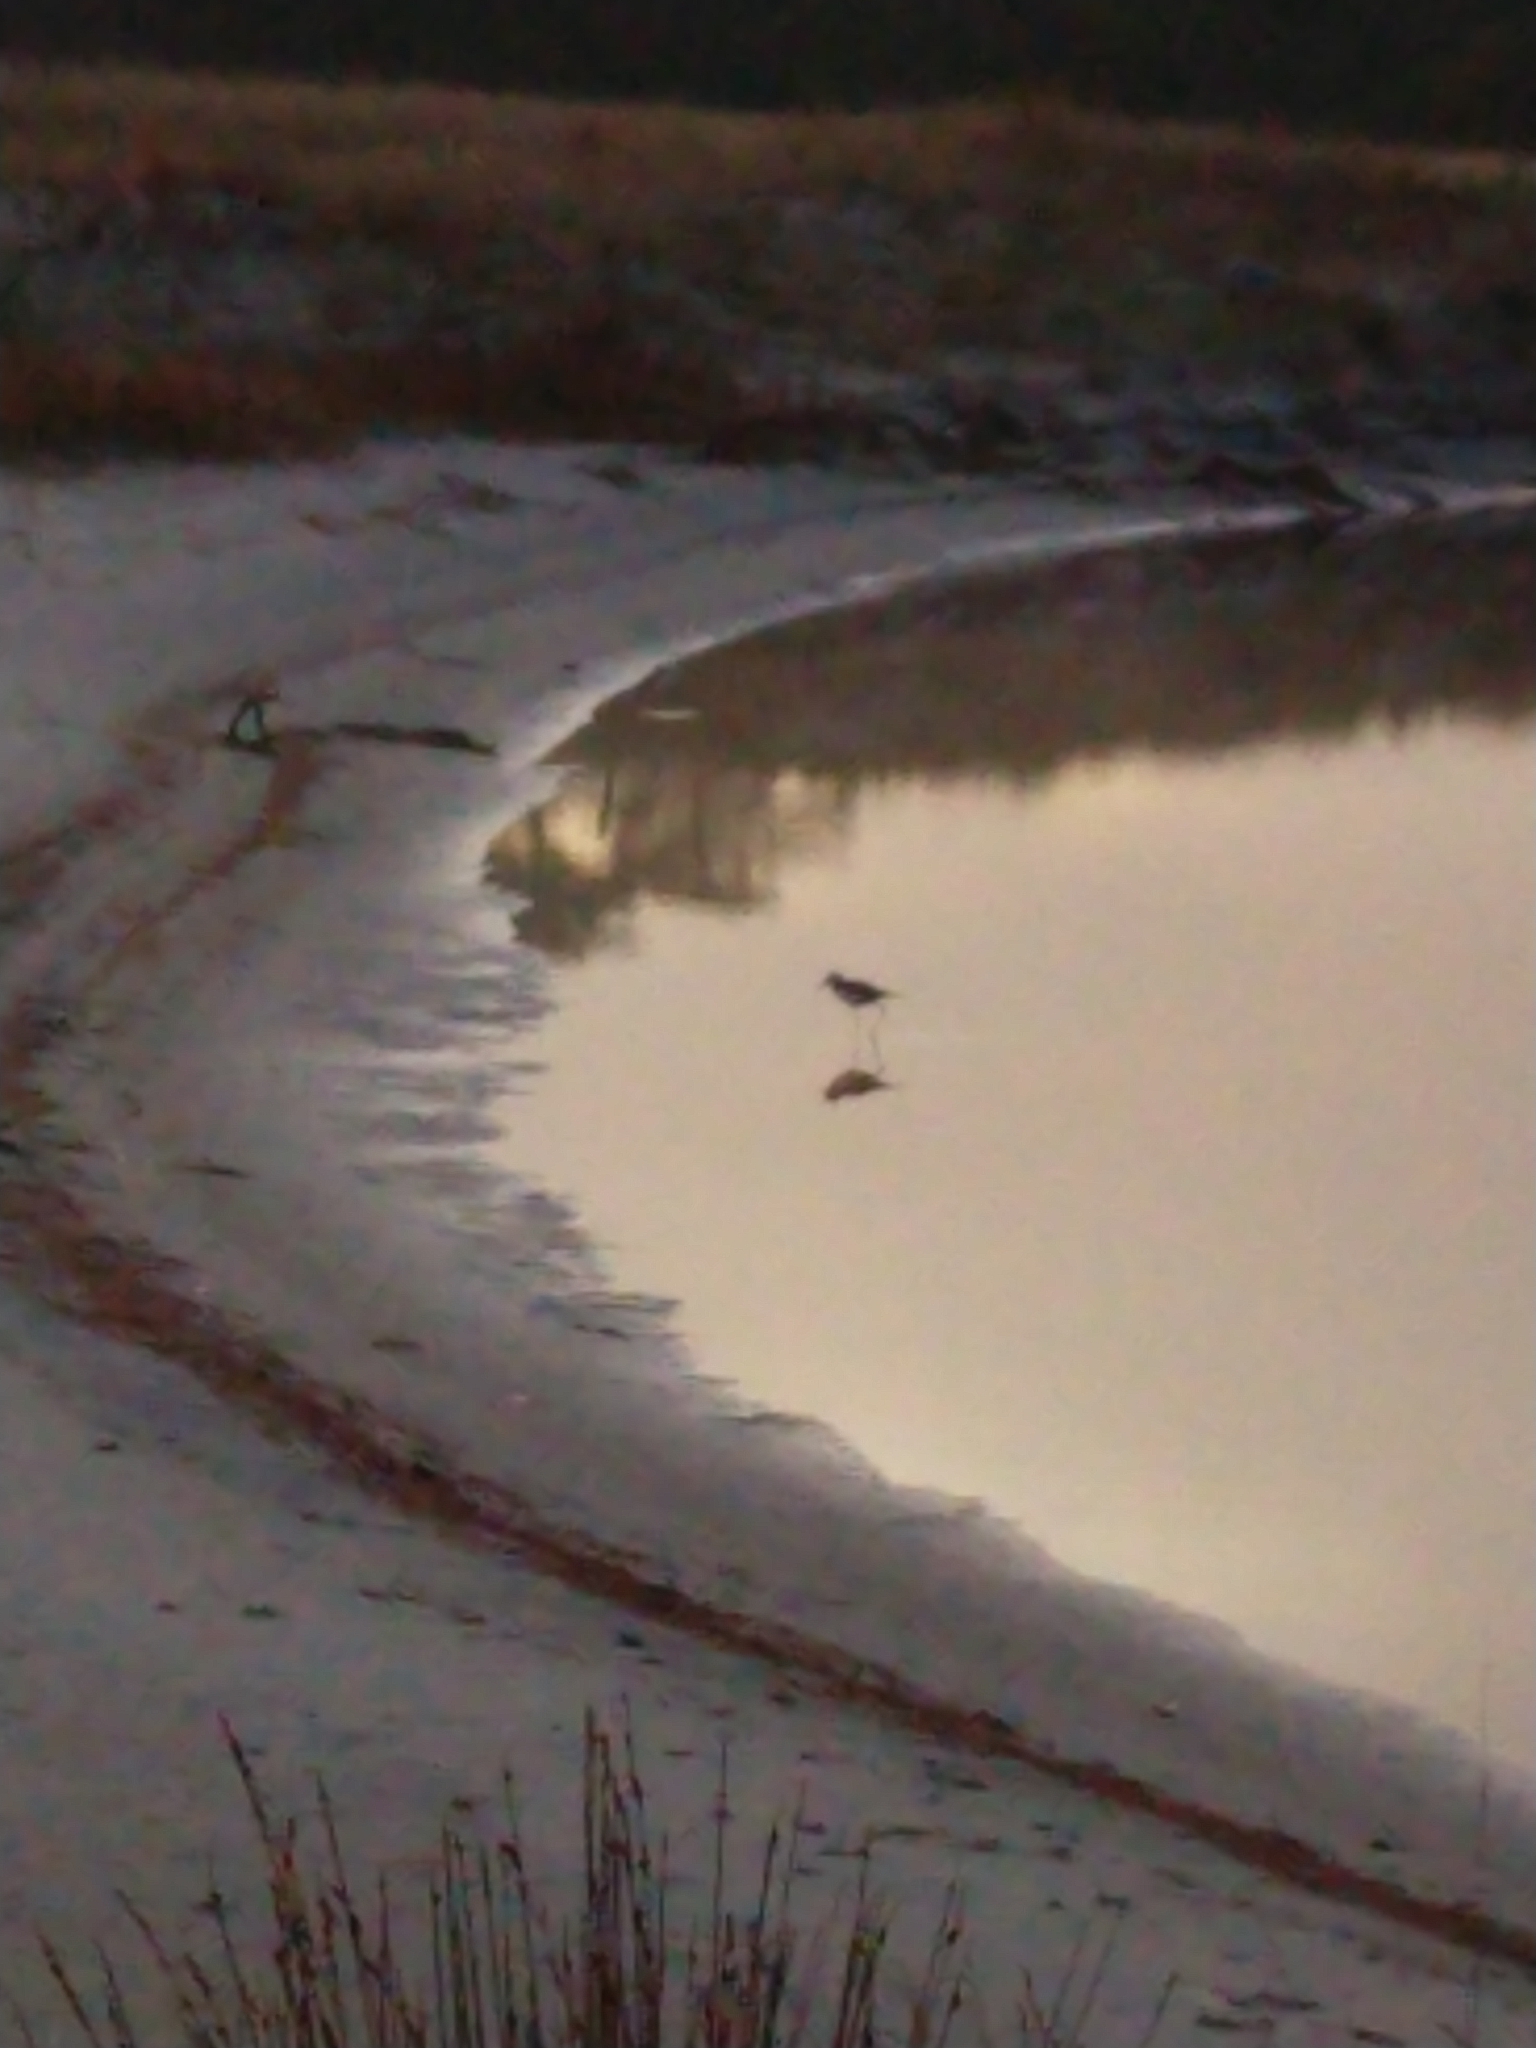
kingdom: Animalia
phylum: Chordata
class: Aves
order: Charadriiformes
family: Recurvirostridae
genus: Himantopus
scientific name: Himantopus leucocephalus
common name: White-headed stilt
